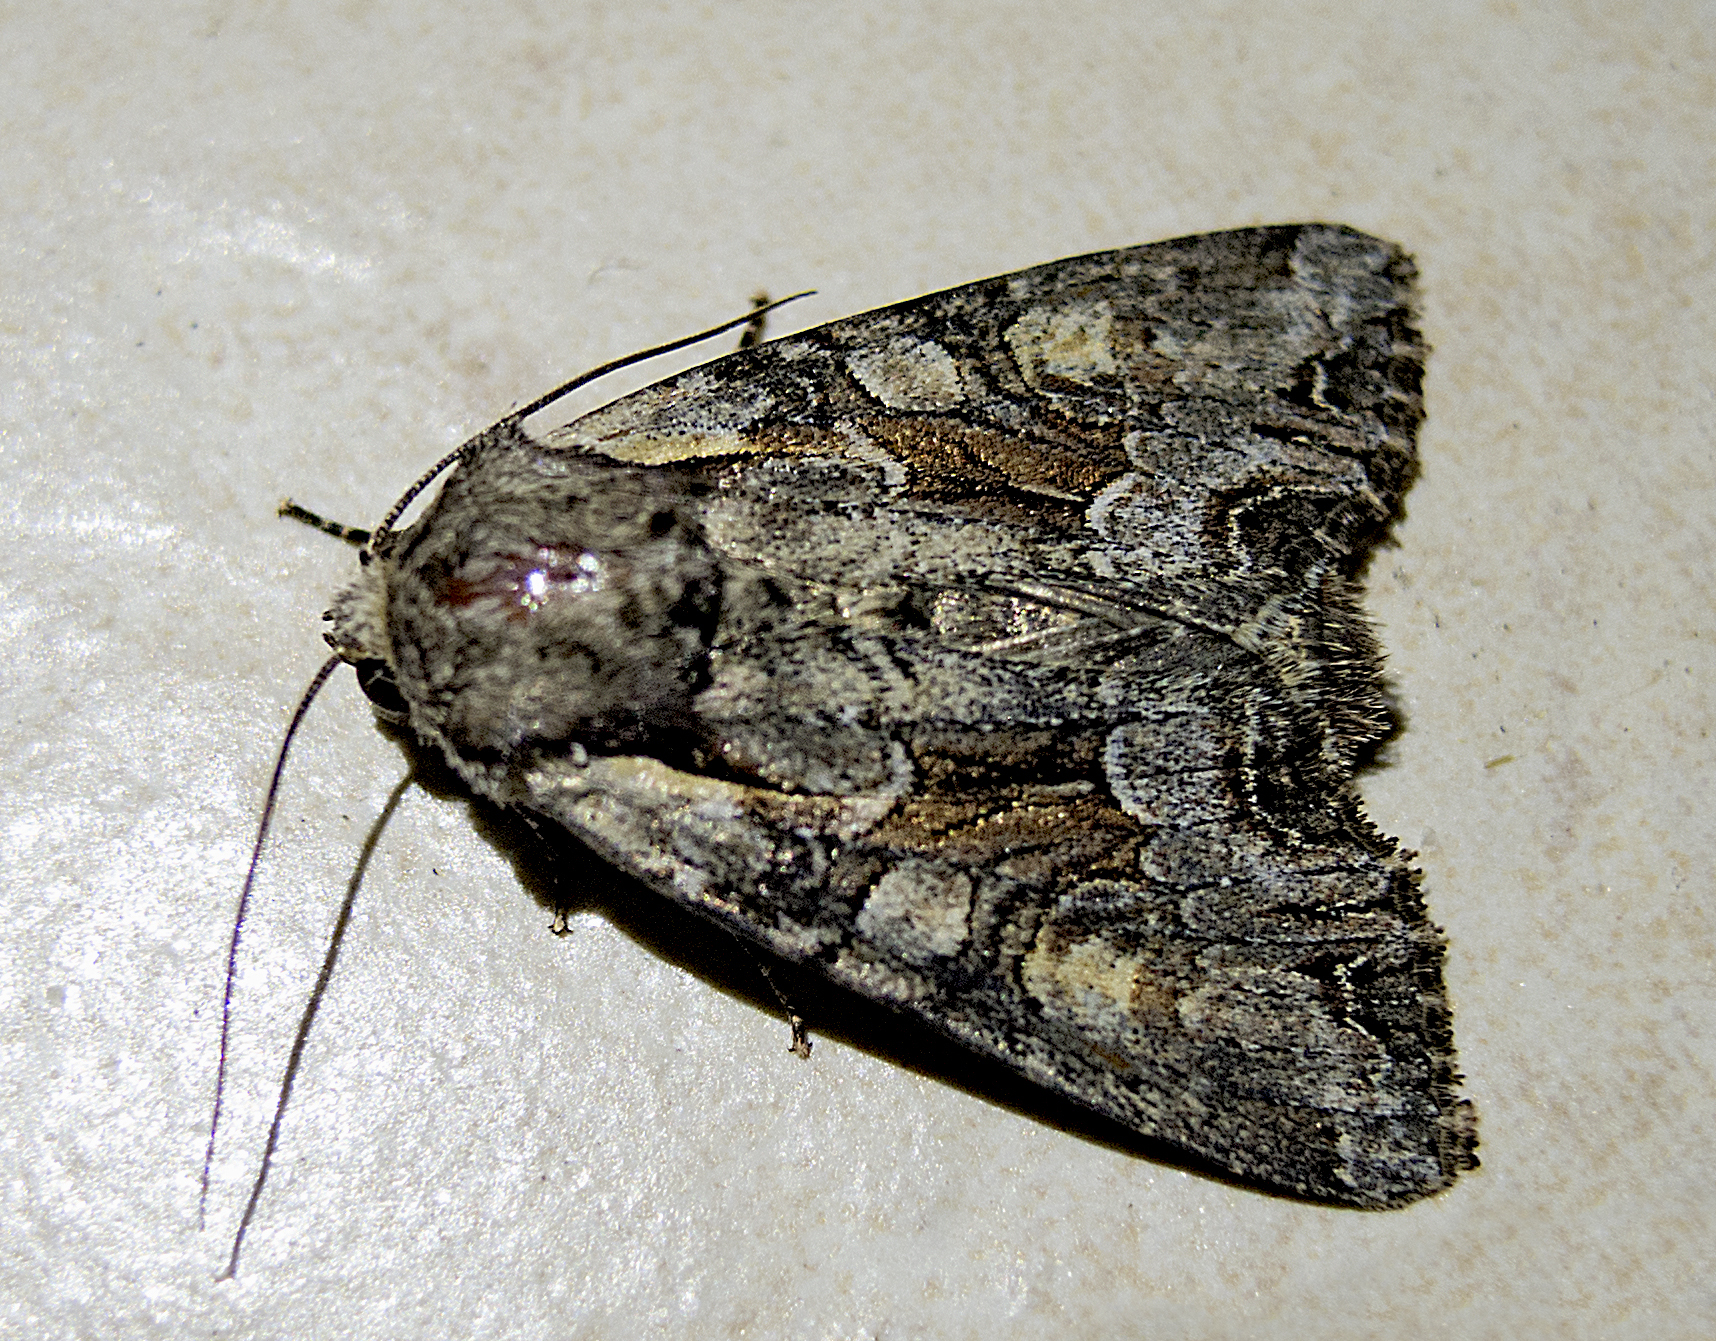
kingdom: Animalia
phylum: Arthropoda
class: Insecta
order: Lepidoptera
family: Noctuidae
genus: Lacanobia
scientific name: Lacanobia w-latinum
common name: Light brocade
